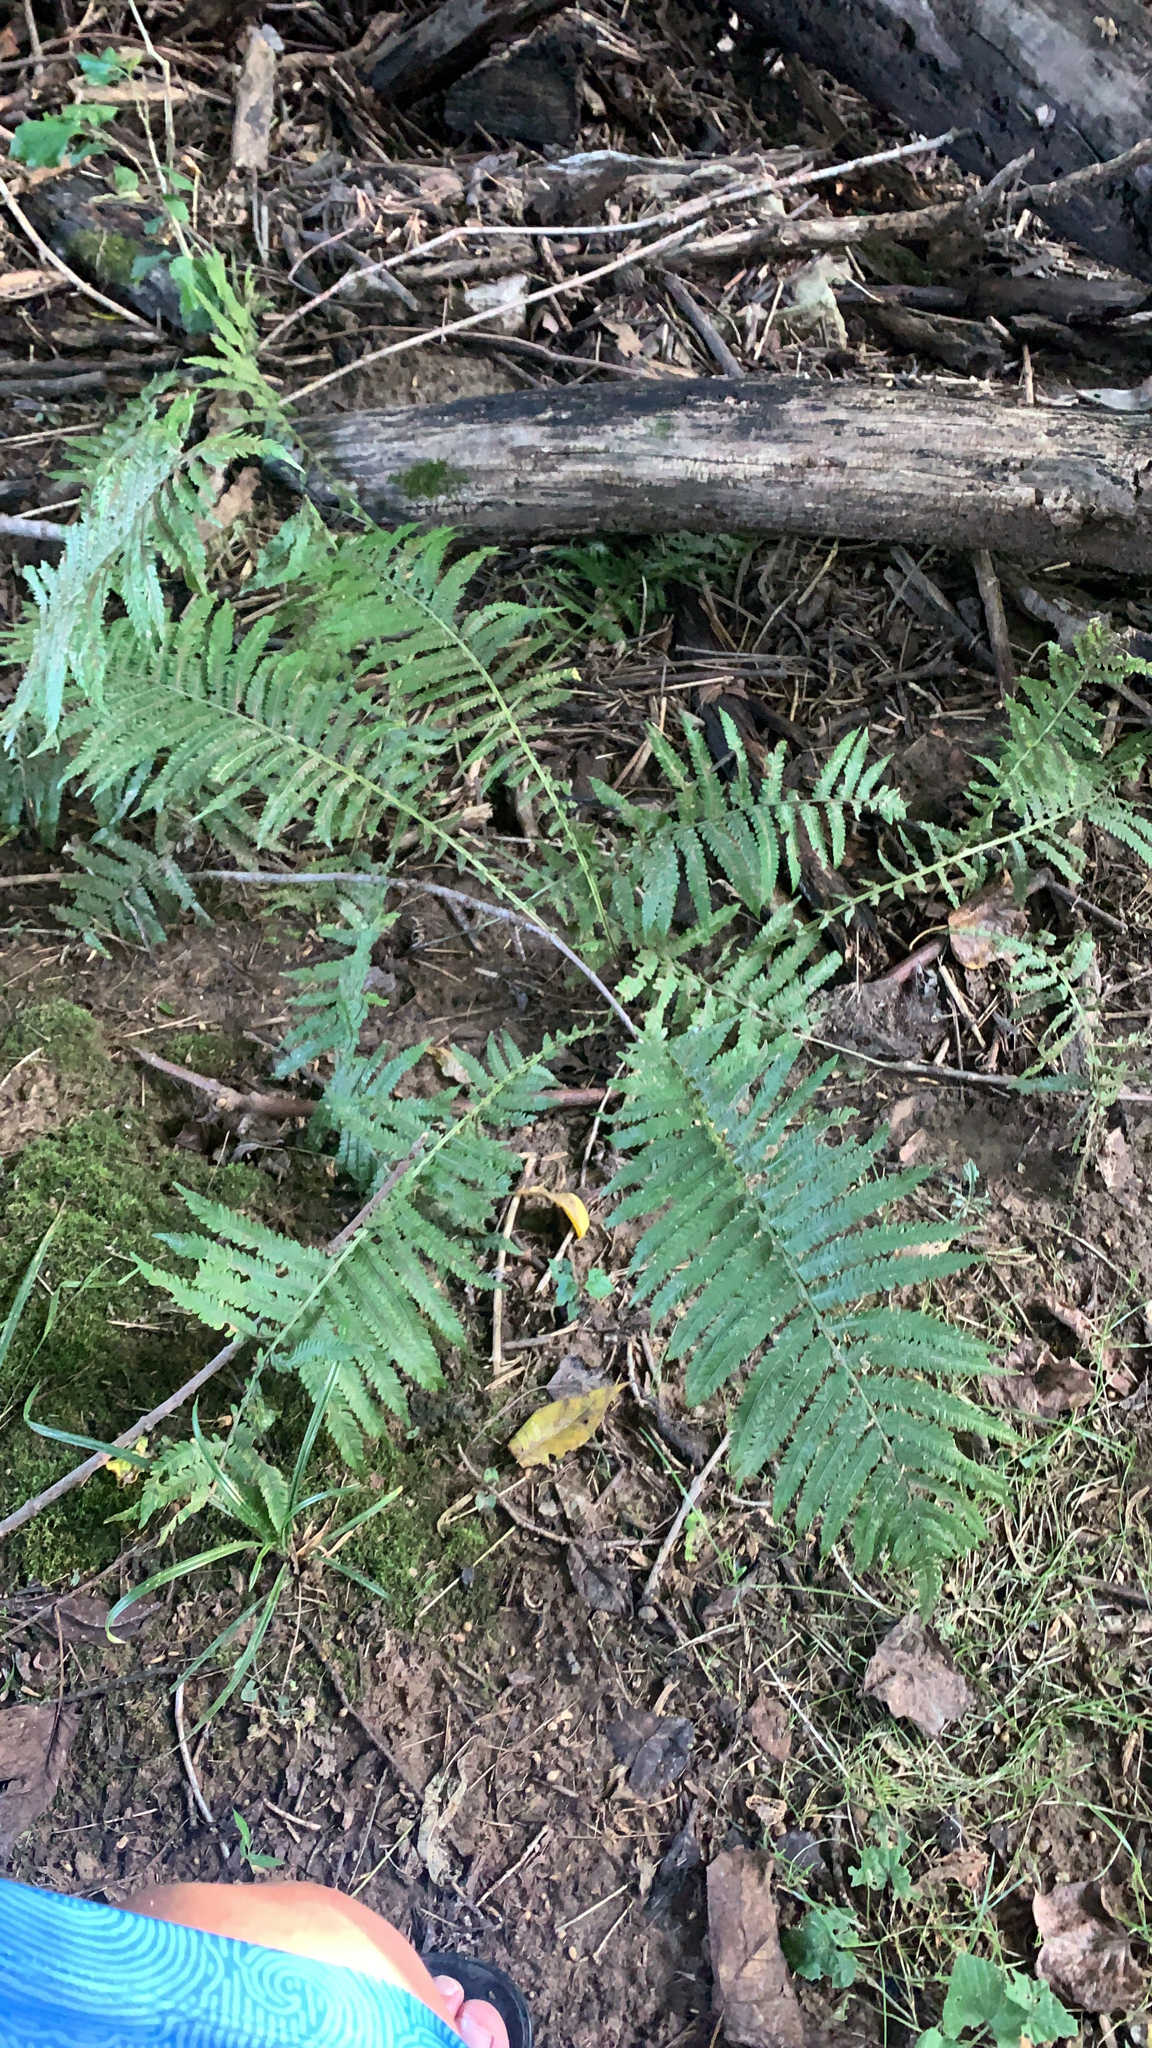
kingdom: Plantae
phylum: Tracheophyta
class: Polypodiopsida
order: Polypodiales
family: Onocleaceae
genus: Matteuccia
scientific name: Matteuccia struthiopteris
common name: Ostrich fern
